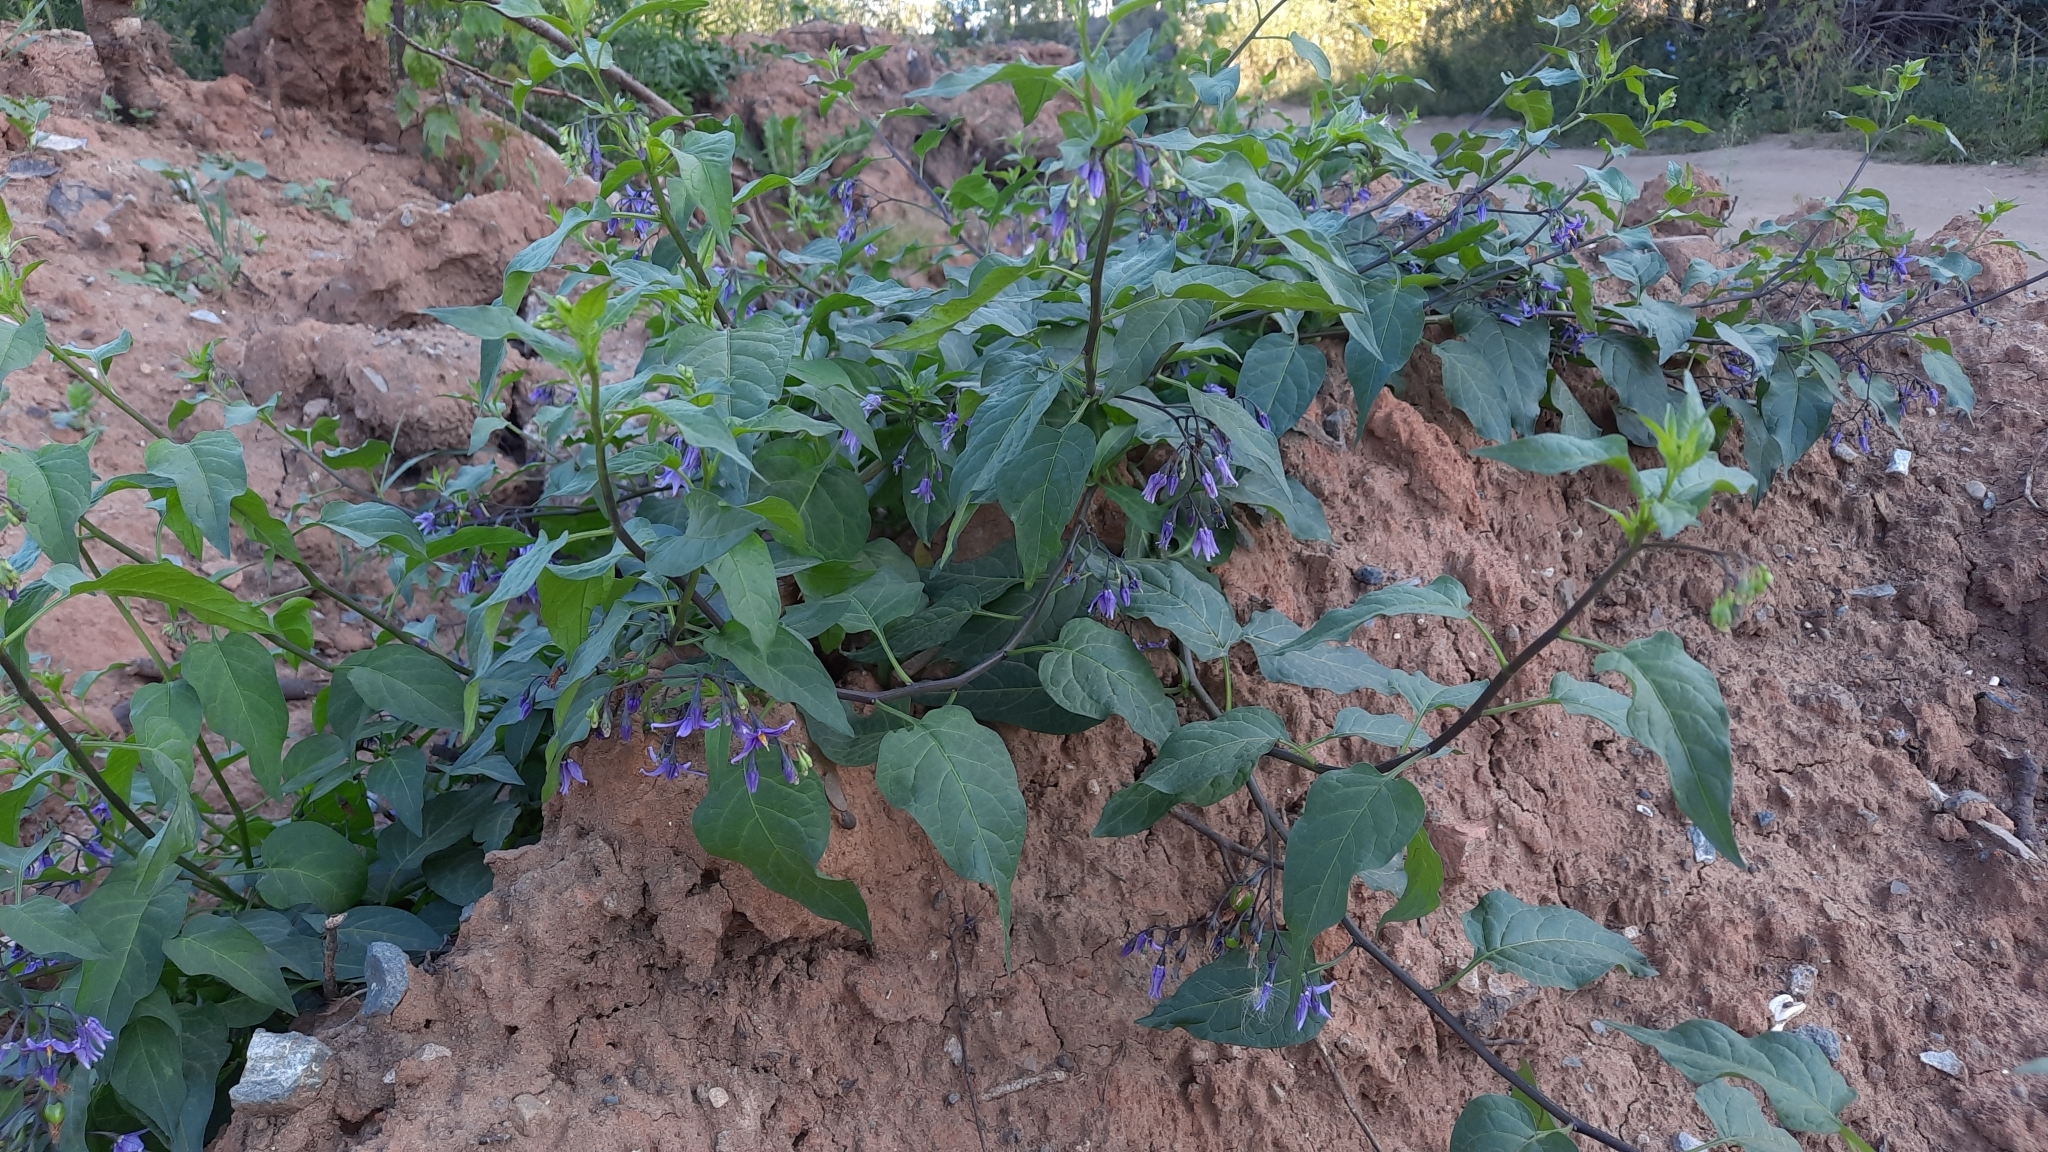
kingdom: Plantae
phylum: Tracheophyta
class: Magnoliopsida
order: Solanales
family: Solanaceae
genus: Solanum
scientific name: Solanum dulcamara
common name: Climbing nightshade
